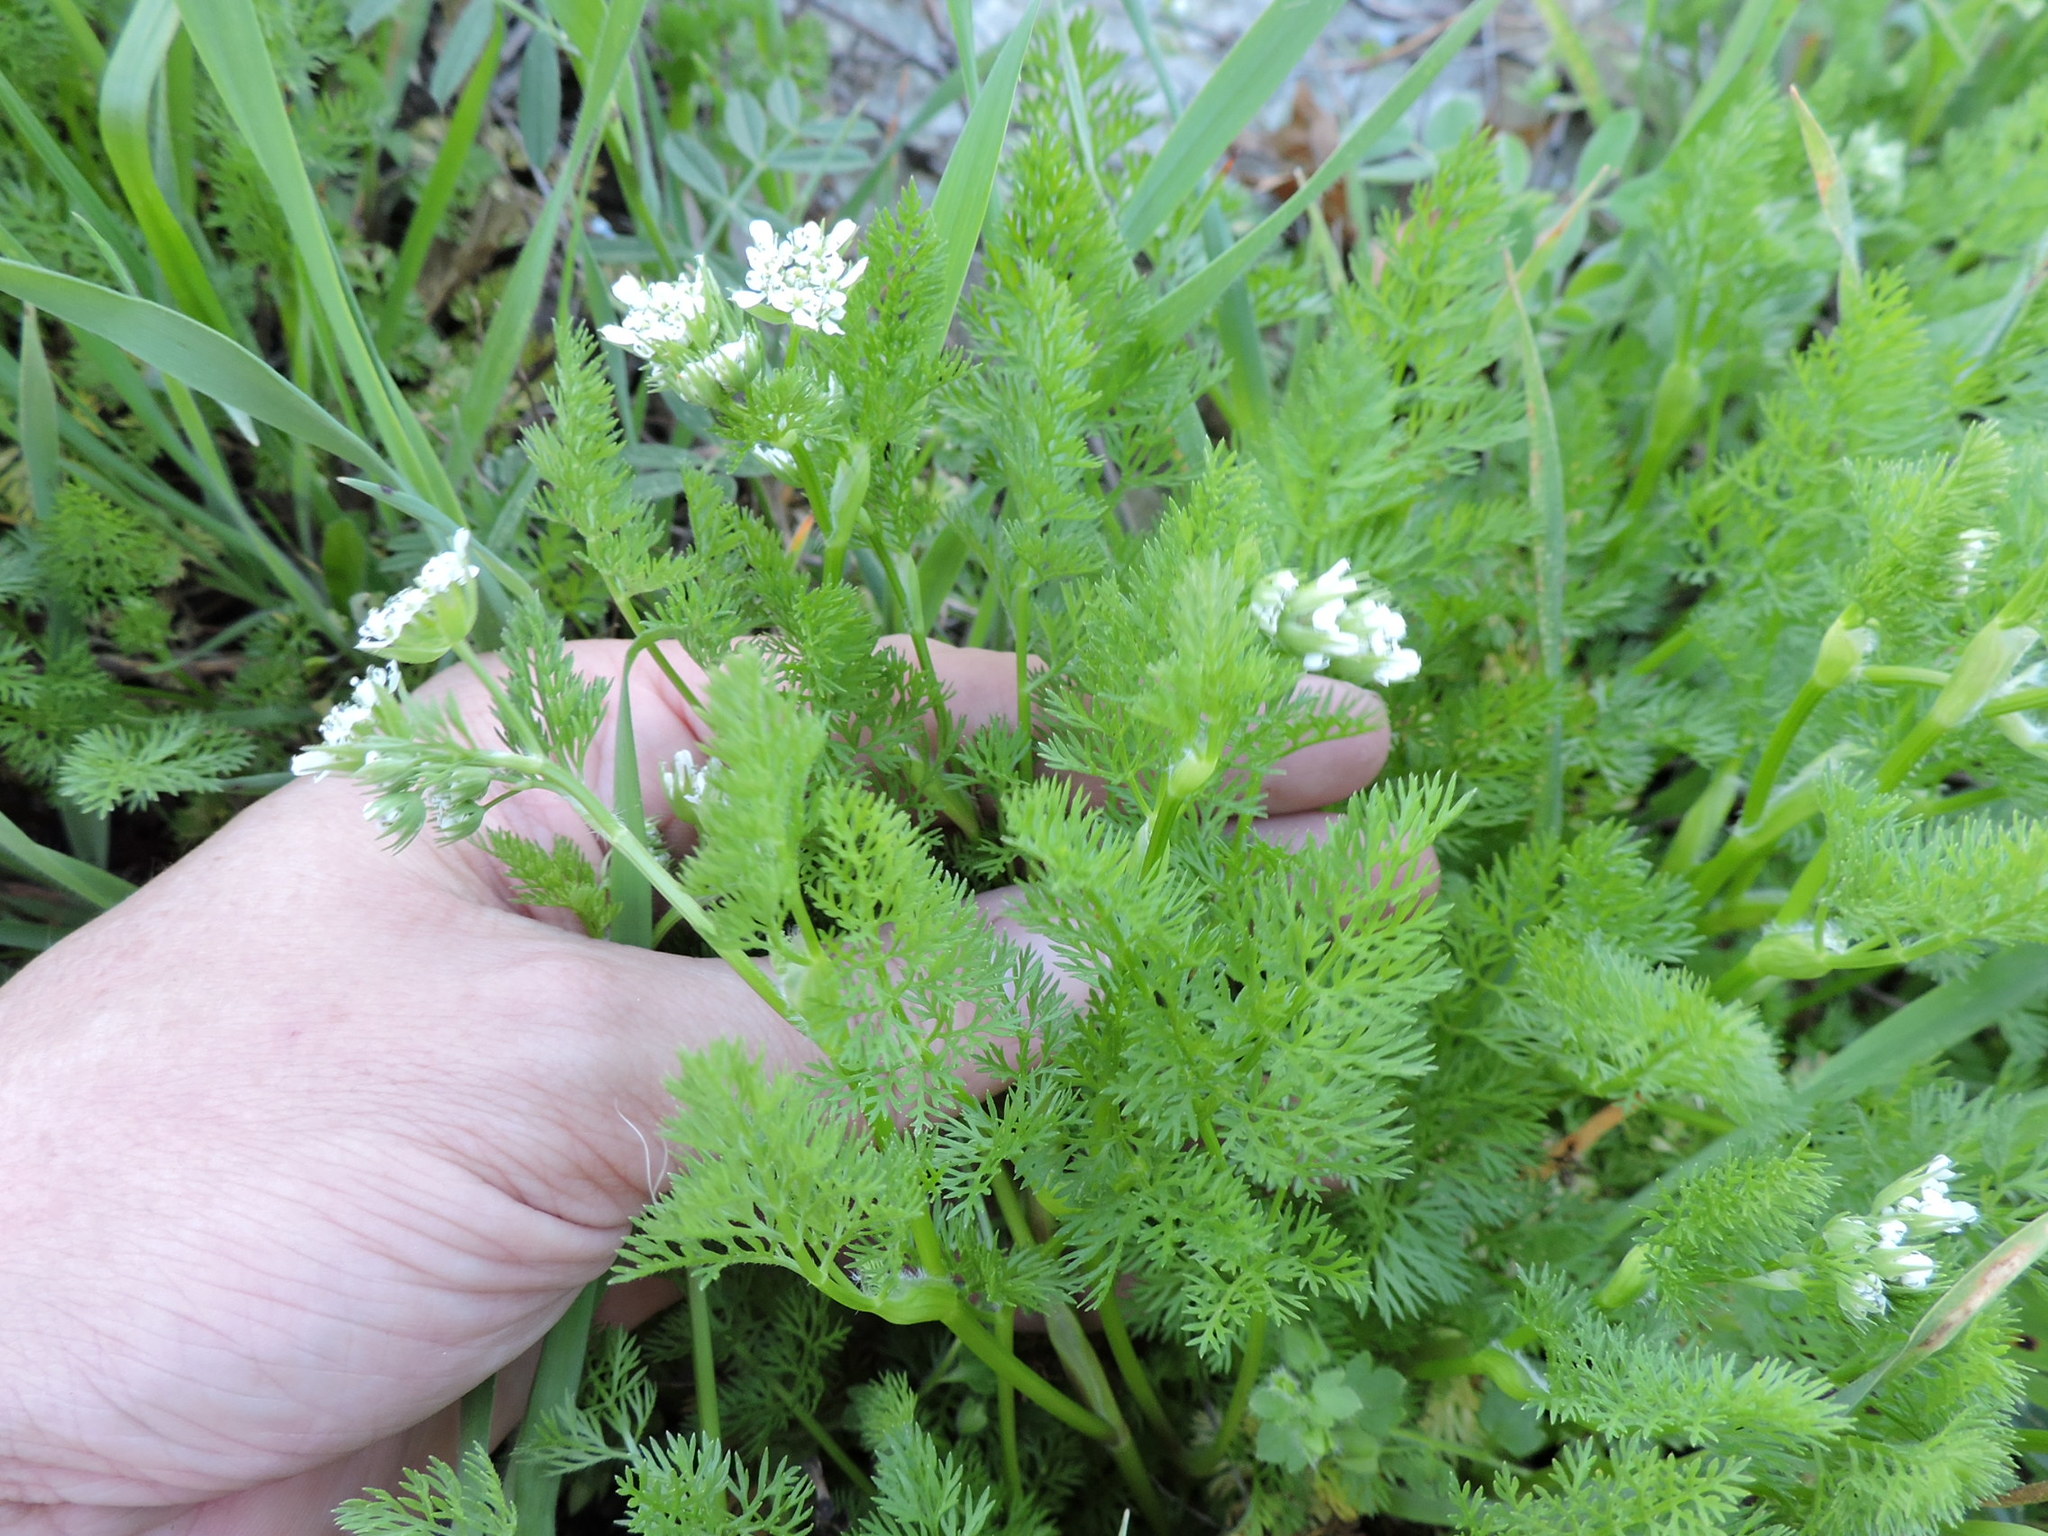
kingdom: Plantae
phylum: Tracheophyta
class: Magnoliopsida
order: Apiales
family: Apiaceae
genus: Scandix
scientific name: Scandix pecten-veneris
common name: Shepherd's-needle
